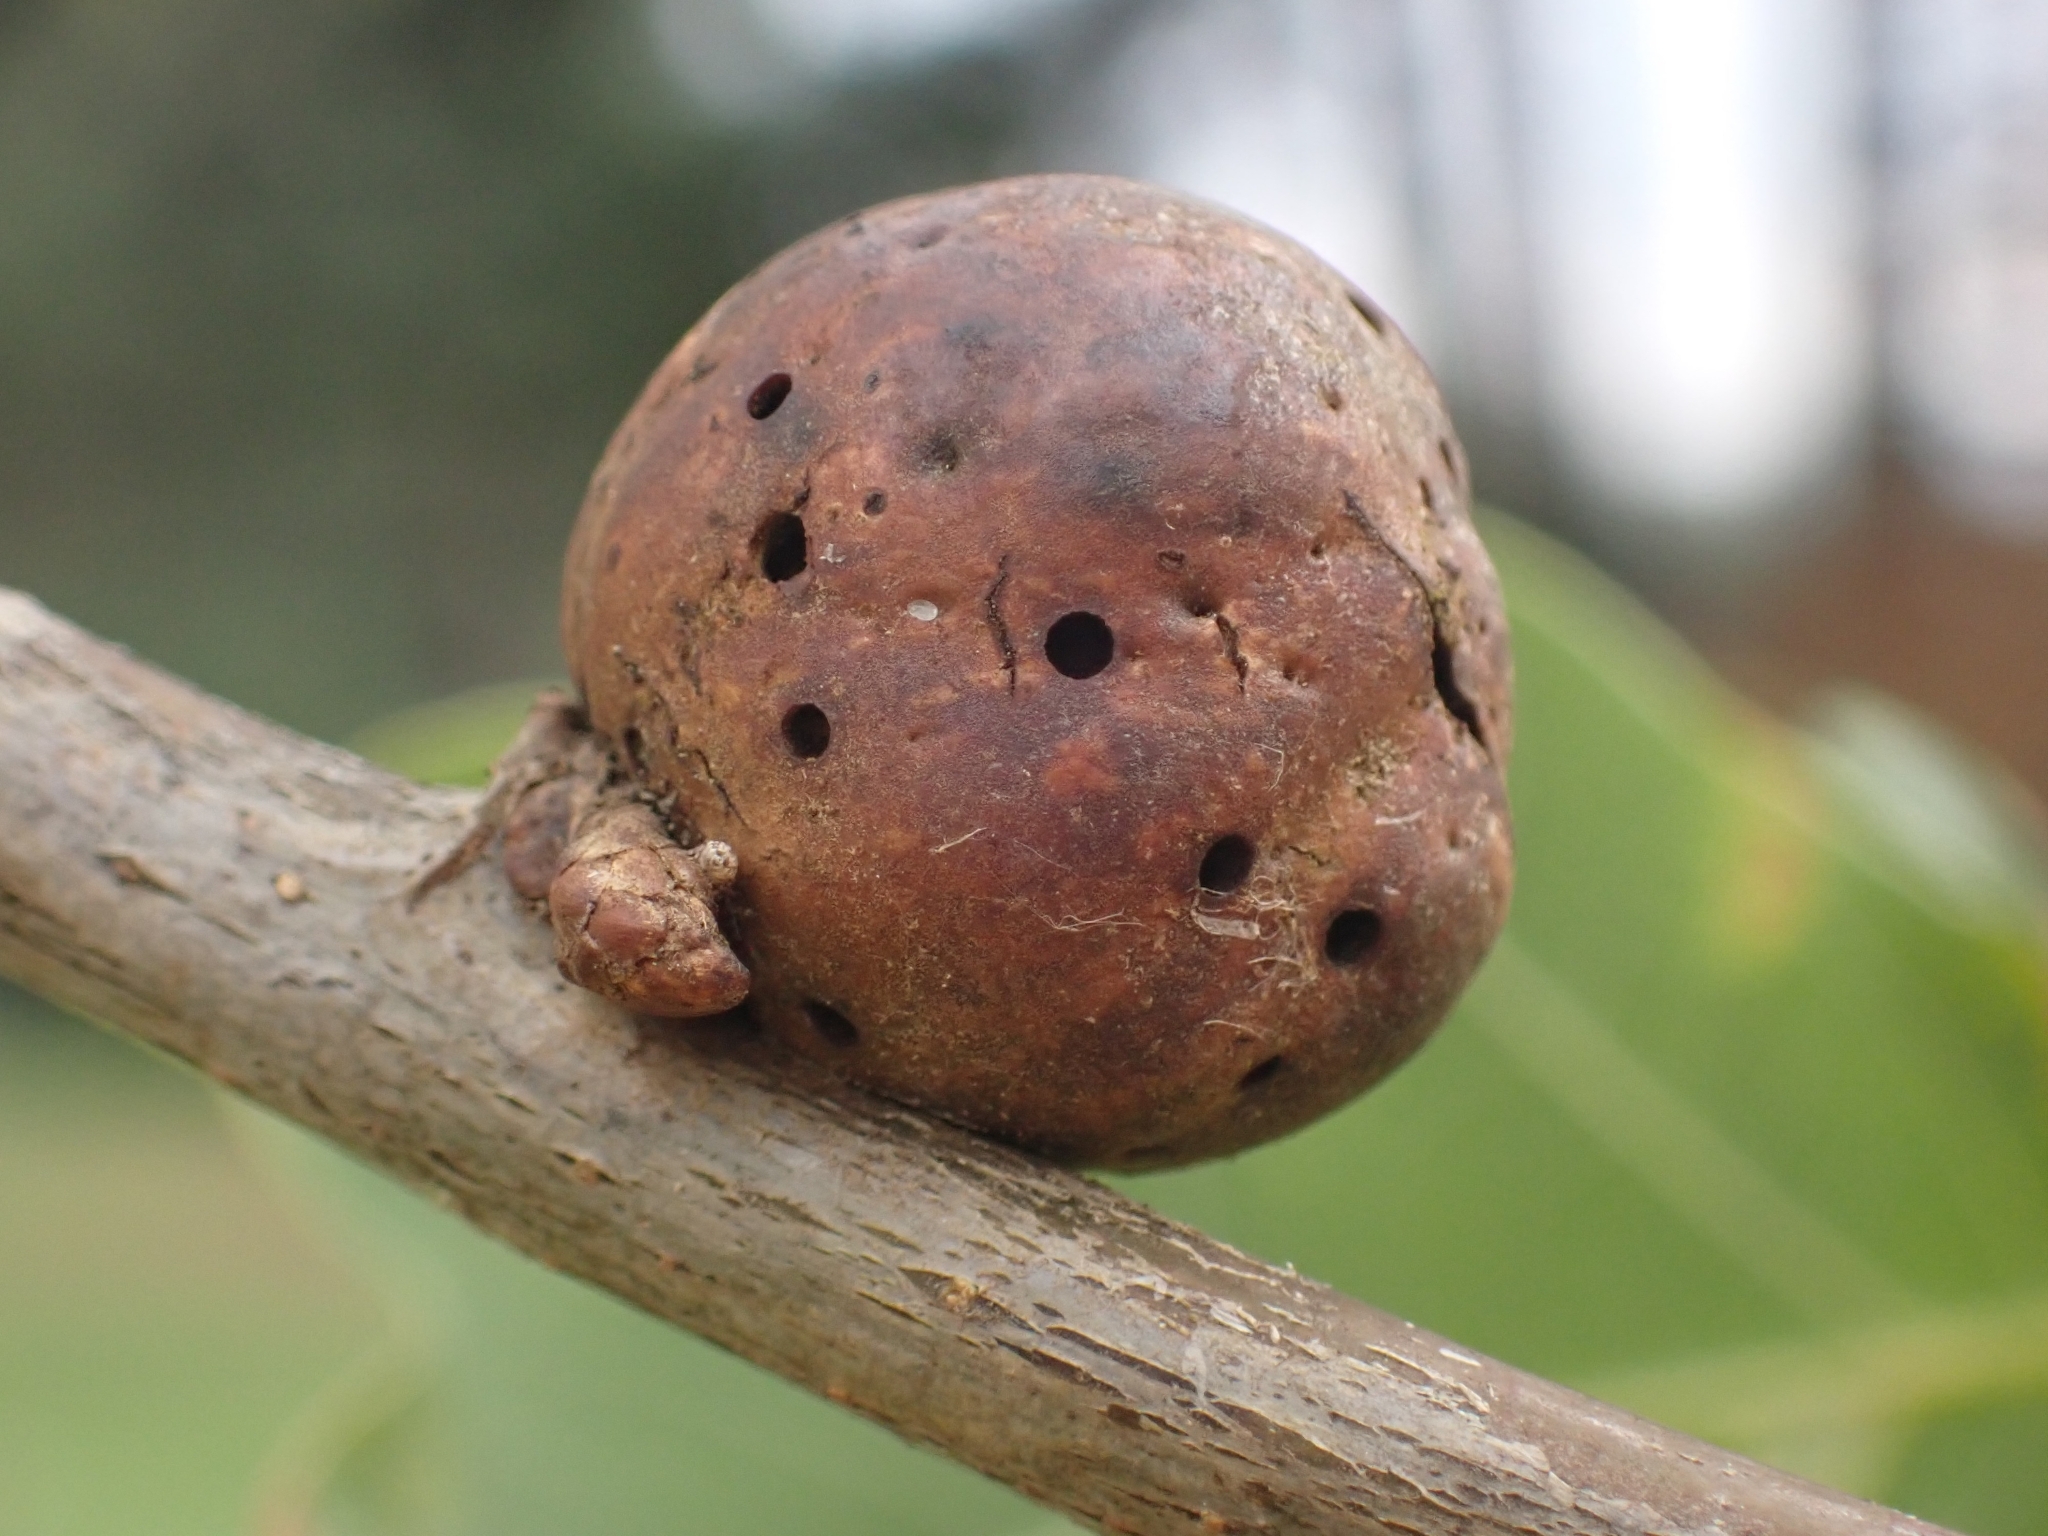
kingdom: Animalia
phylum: Arthropoda
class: Insecta
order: Hymenoptera
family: Cynipidae
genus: Andricus
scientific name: Andricus kollari
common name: Marble gall
